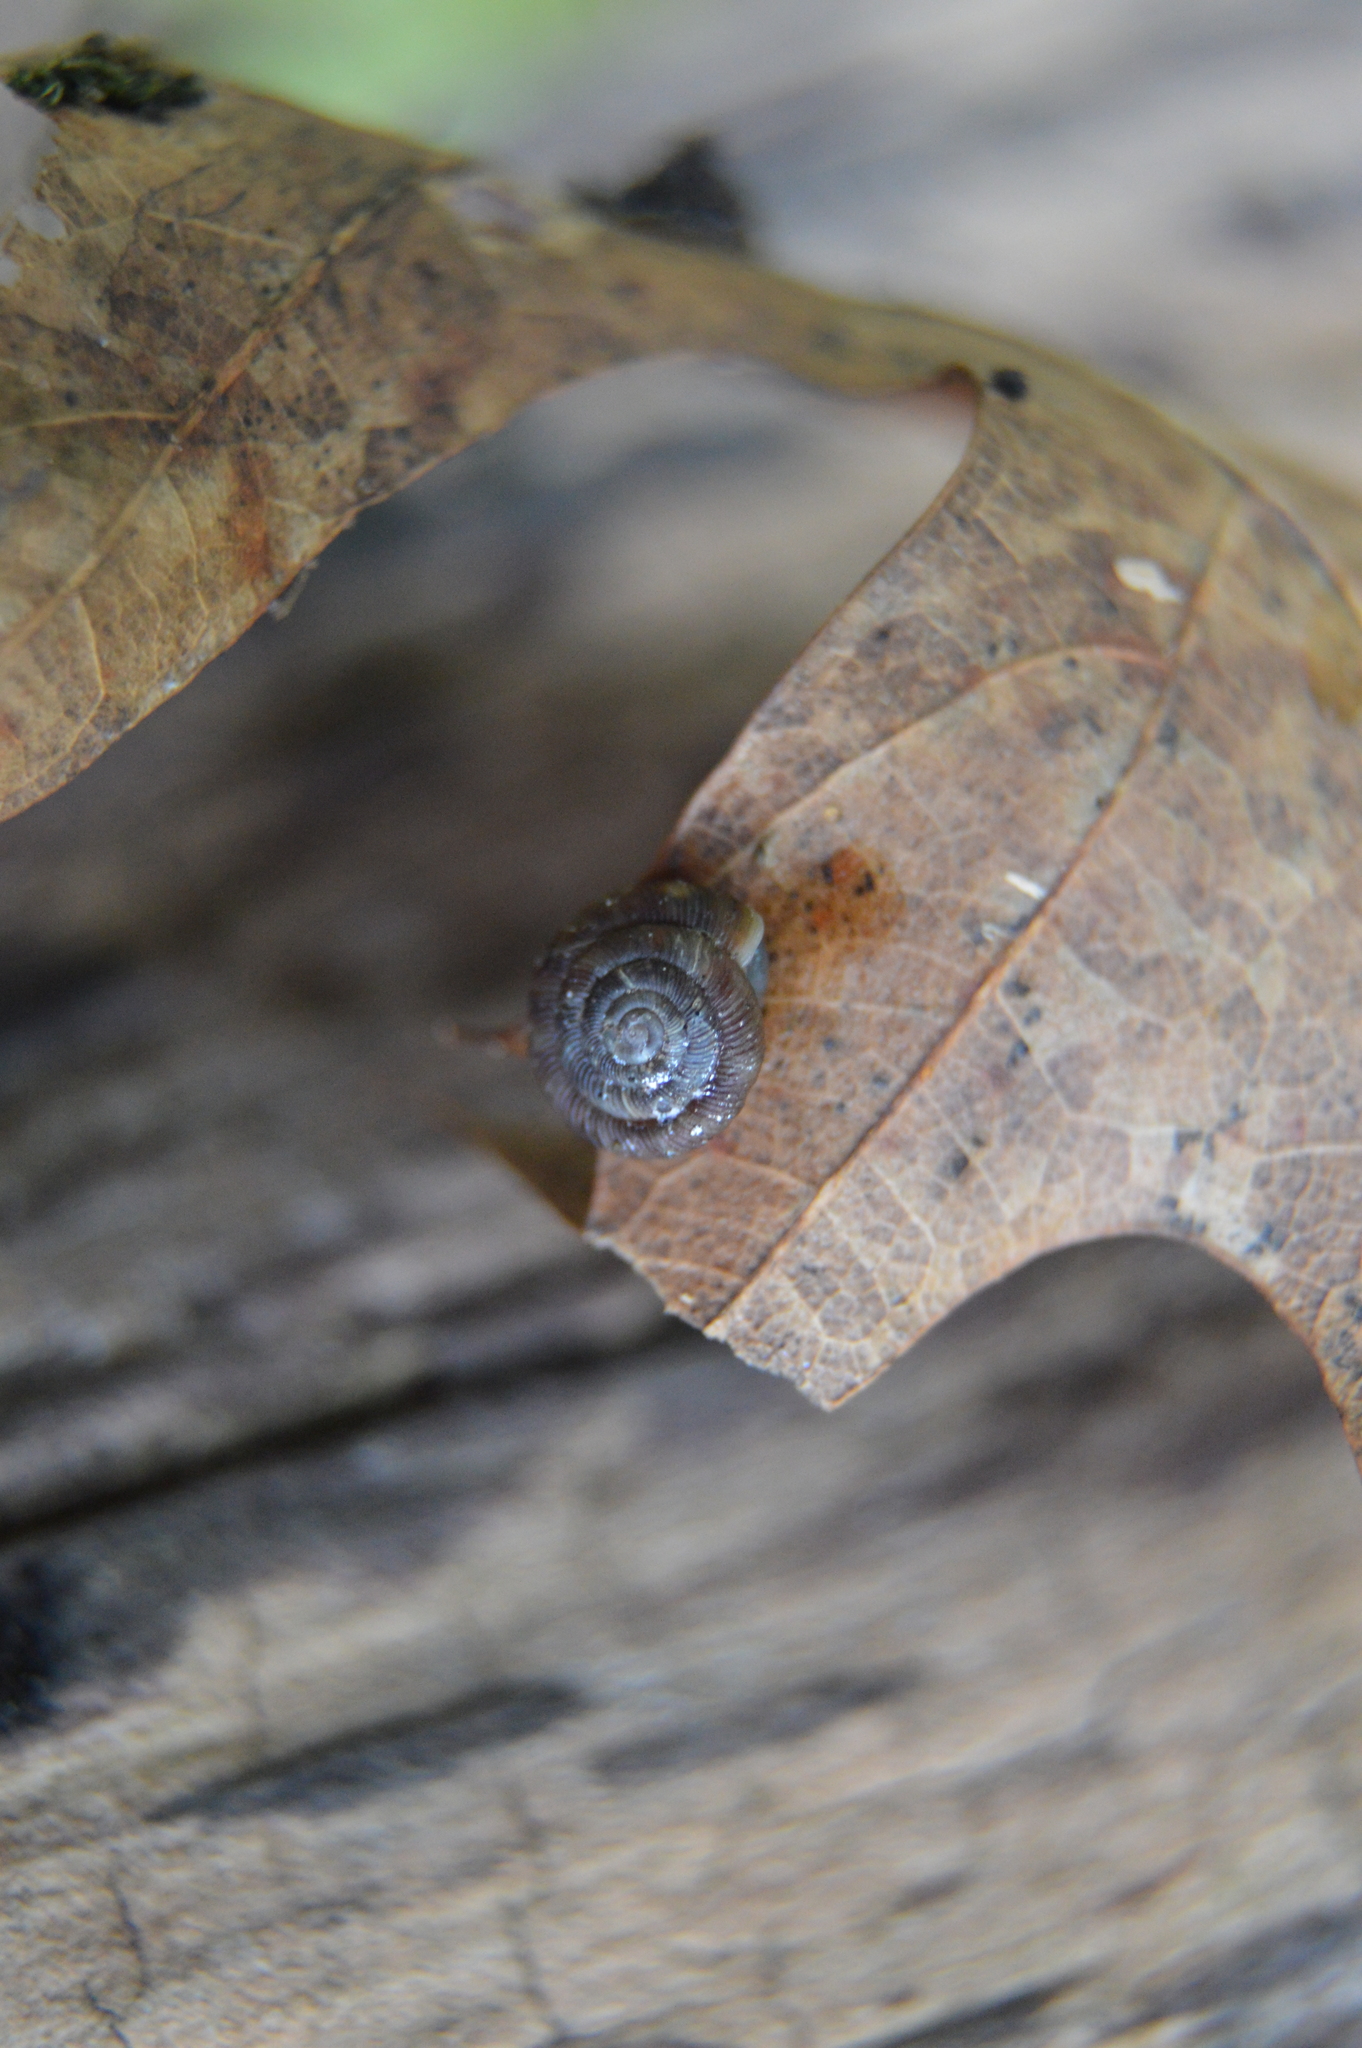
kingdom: Animalia
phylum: Mollusca
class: Gastropoda
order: Stylommatophora
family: Discidae
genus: Discus
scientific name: Discus rotundatus
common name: Rounded snail
